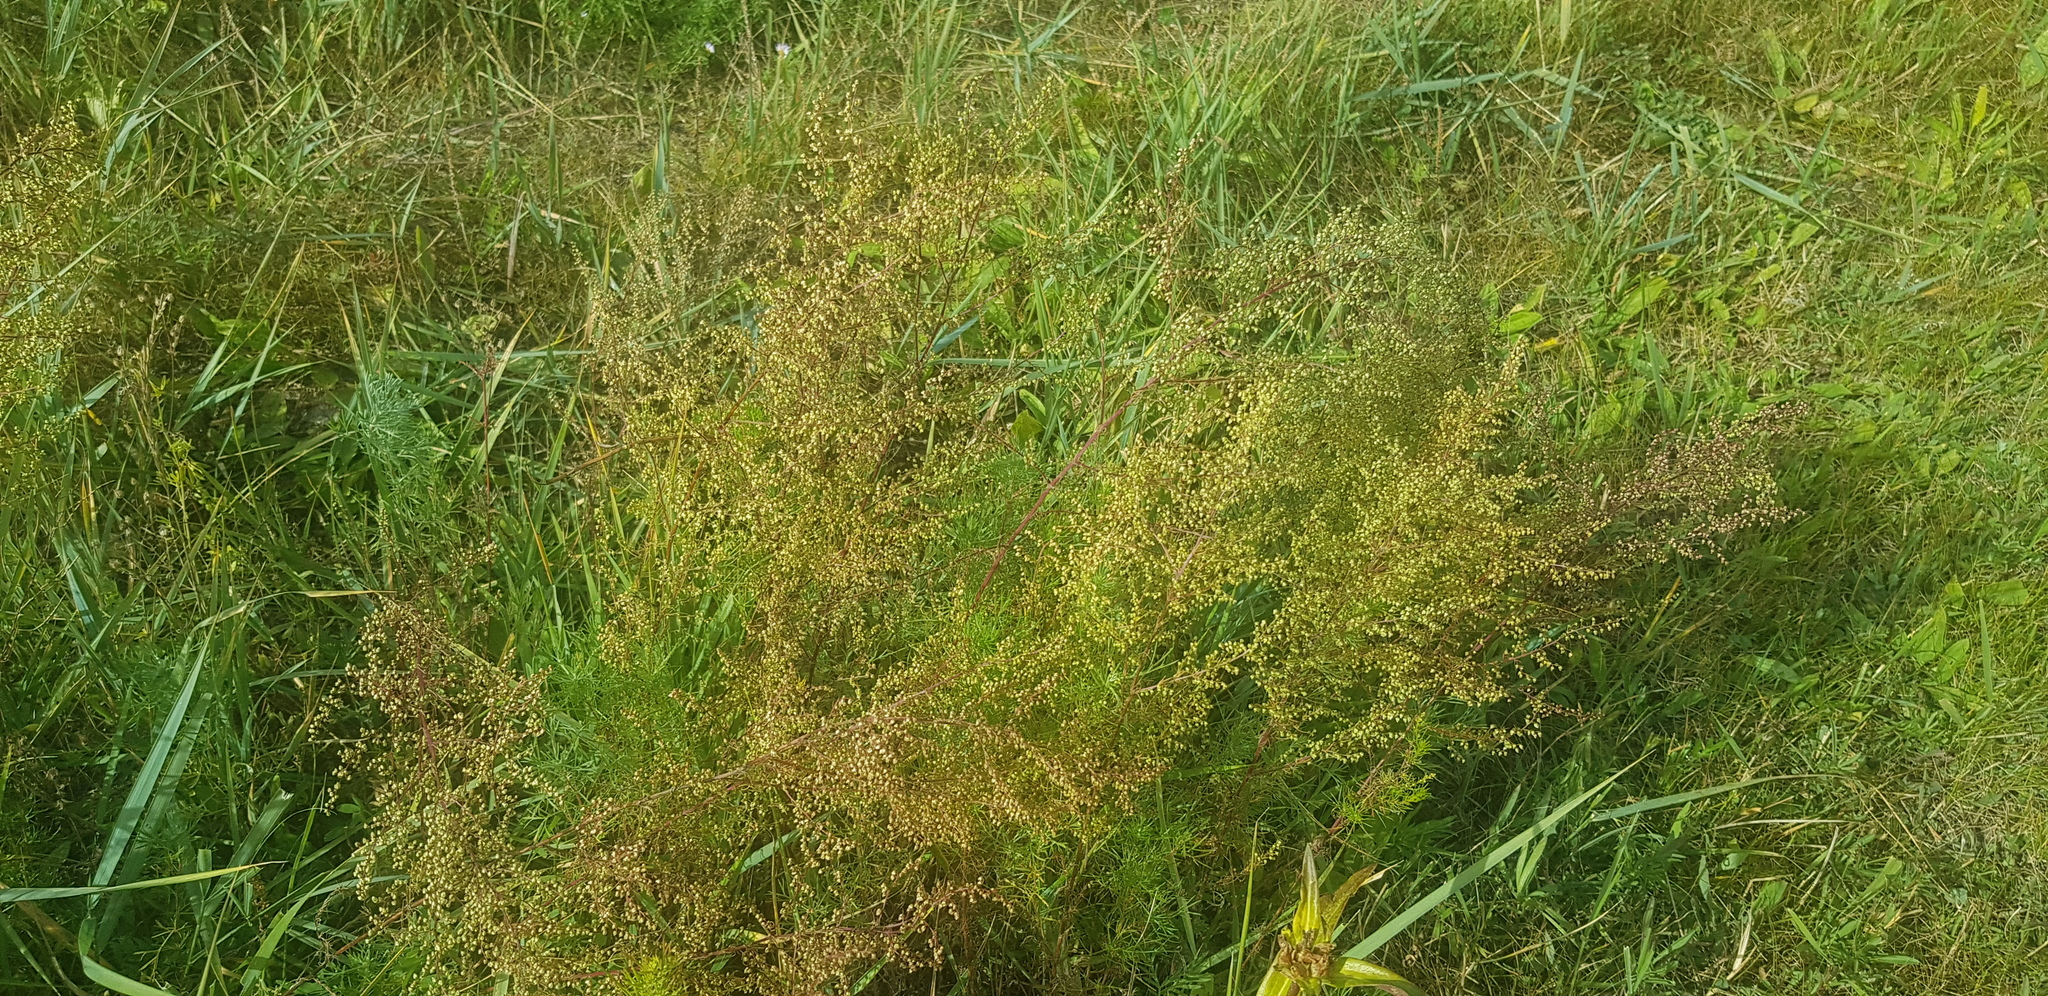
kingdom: Plantae
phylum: Tracheophyta
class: Magnoliopsida
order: Asterales
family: Asteraceae
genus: Artemisia
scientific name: Artemisia scoparia
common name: Redstem wormwood
